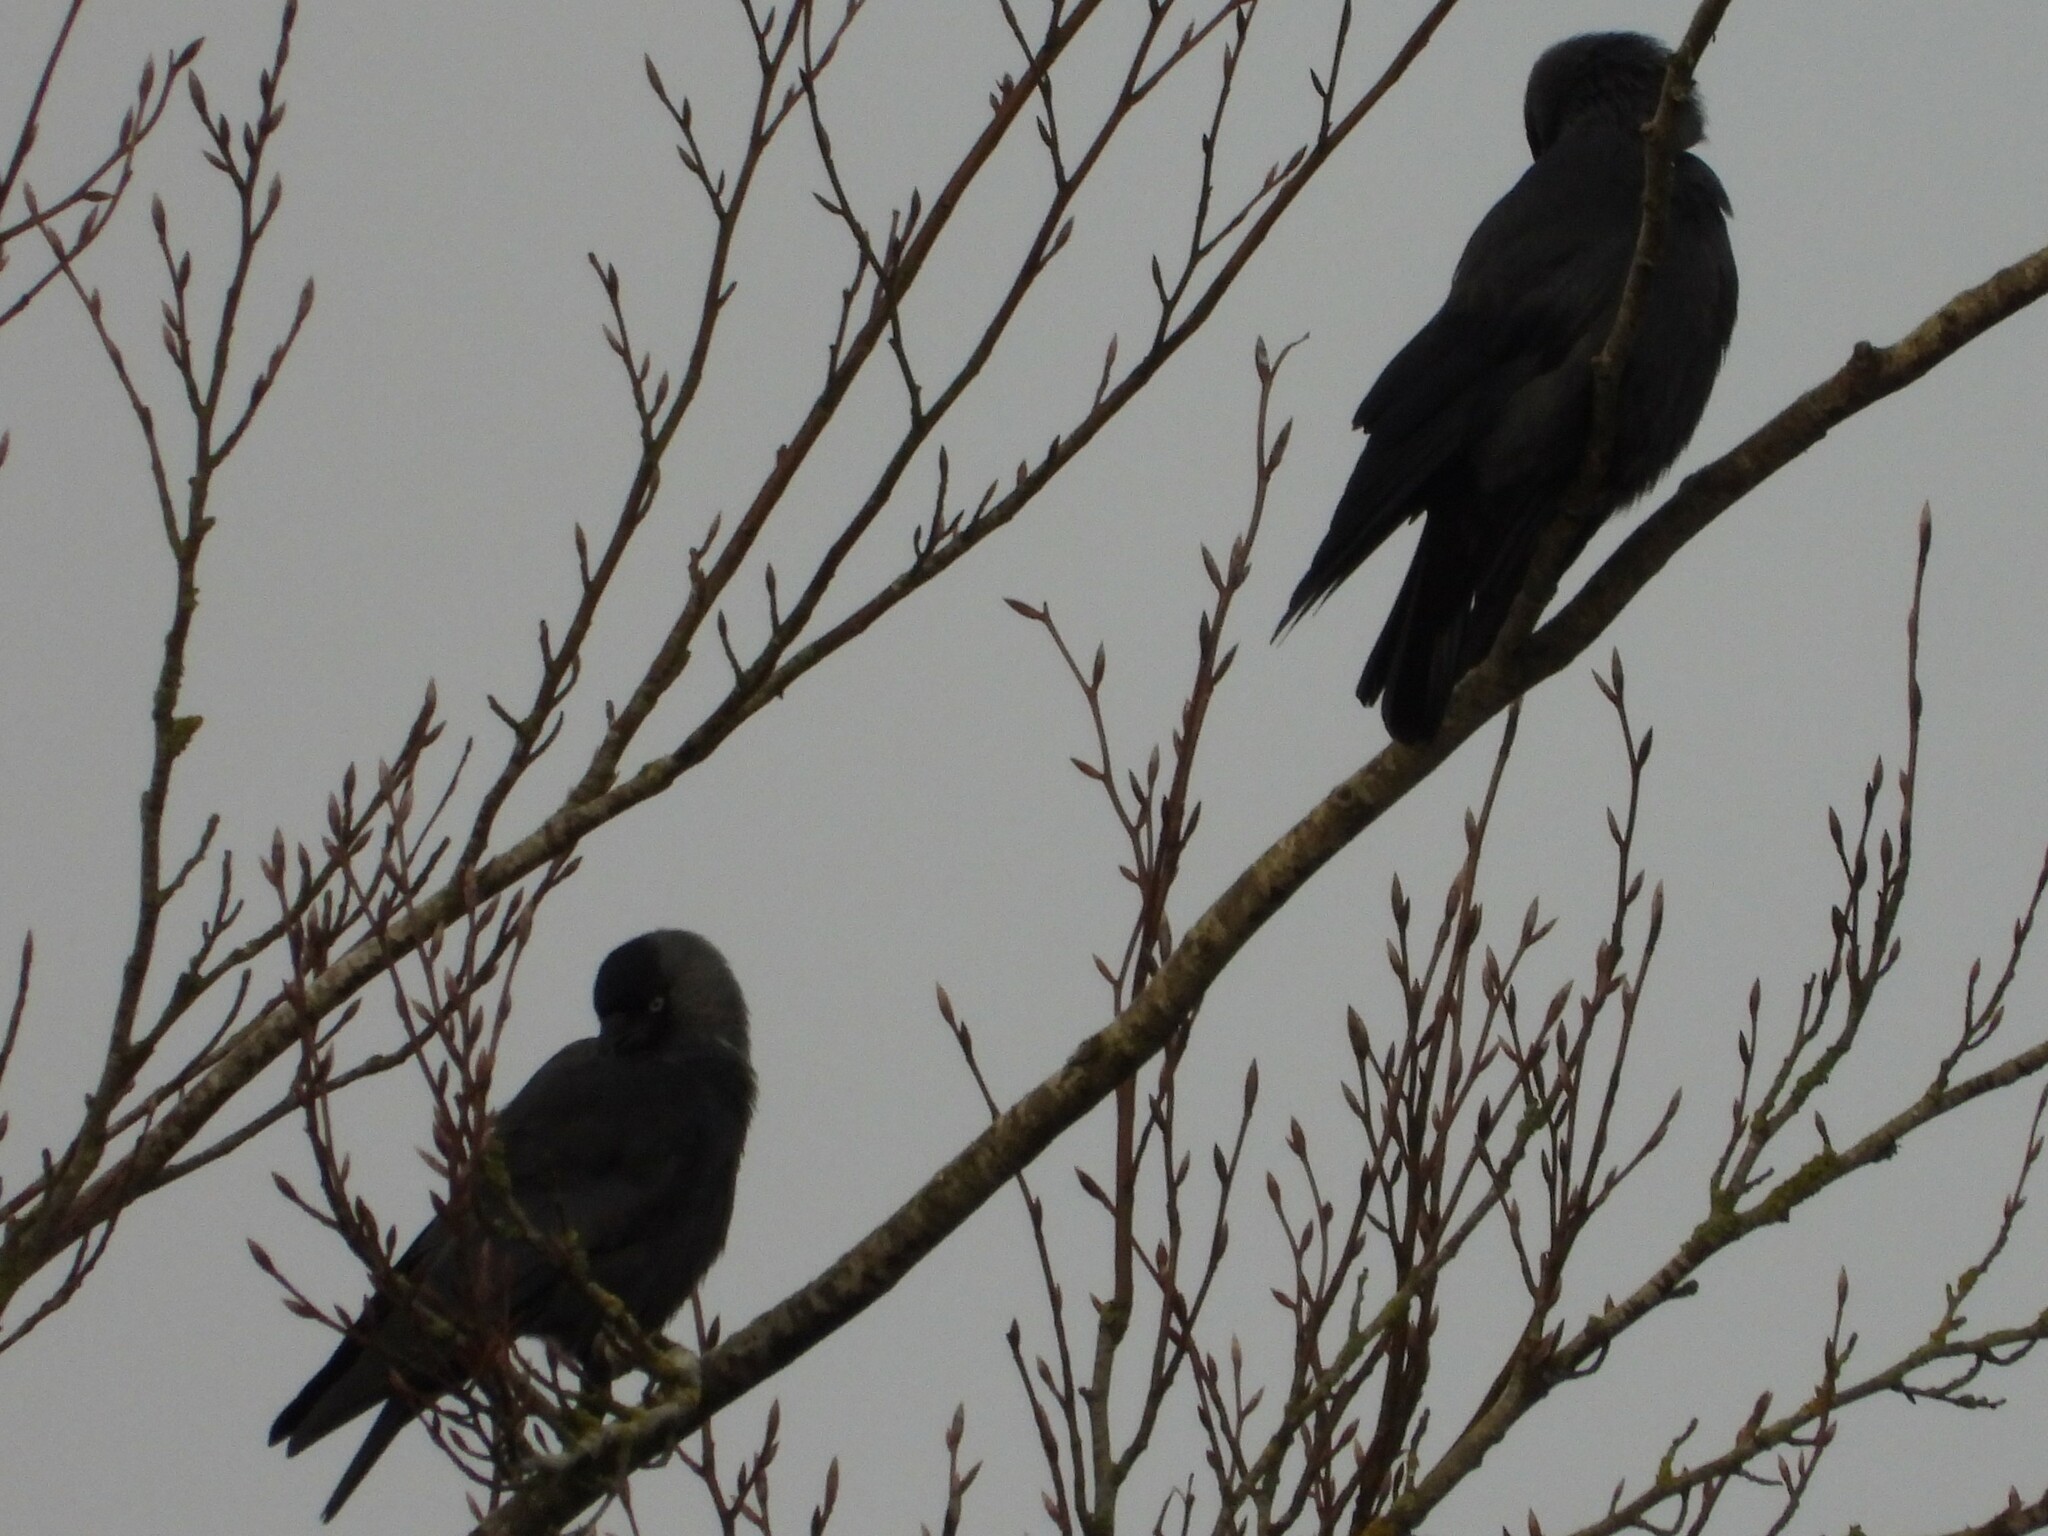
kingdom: Animalia
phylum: Chordata
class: Aves
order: Passeriformes
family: Corvidae
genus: Coloeus
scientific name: Coloeus monedula
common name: Western jackdaw
